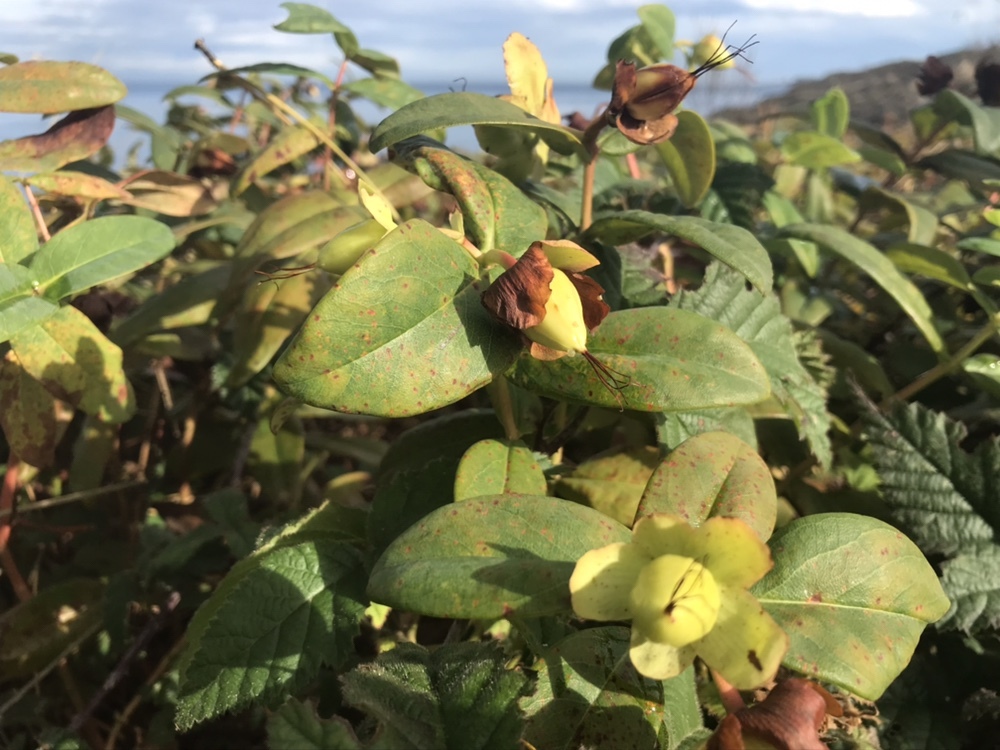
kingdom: Plantae
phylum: Tracheophyta
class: Magnoliopsida
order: Malpighiales
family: Hypericaceae
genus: Hypericum
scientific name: Hypericum calycinum
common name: Rose-of-sharon
